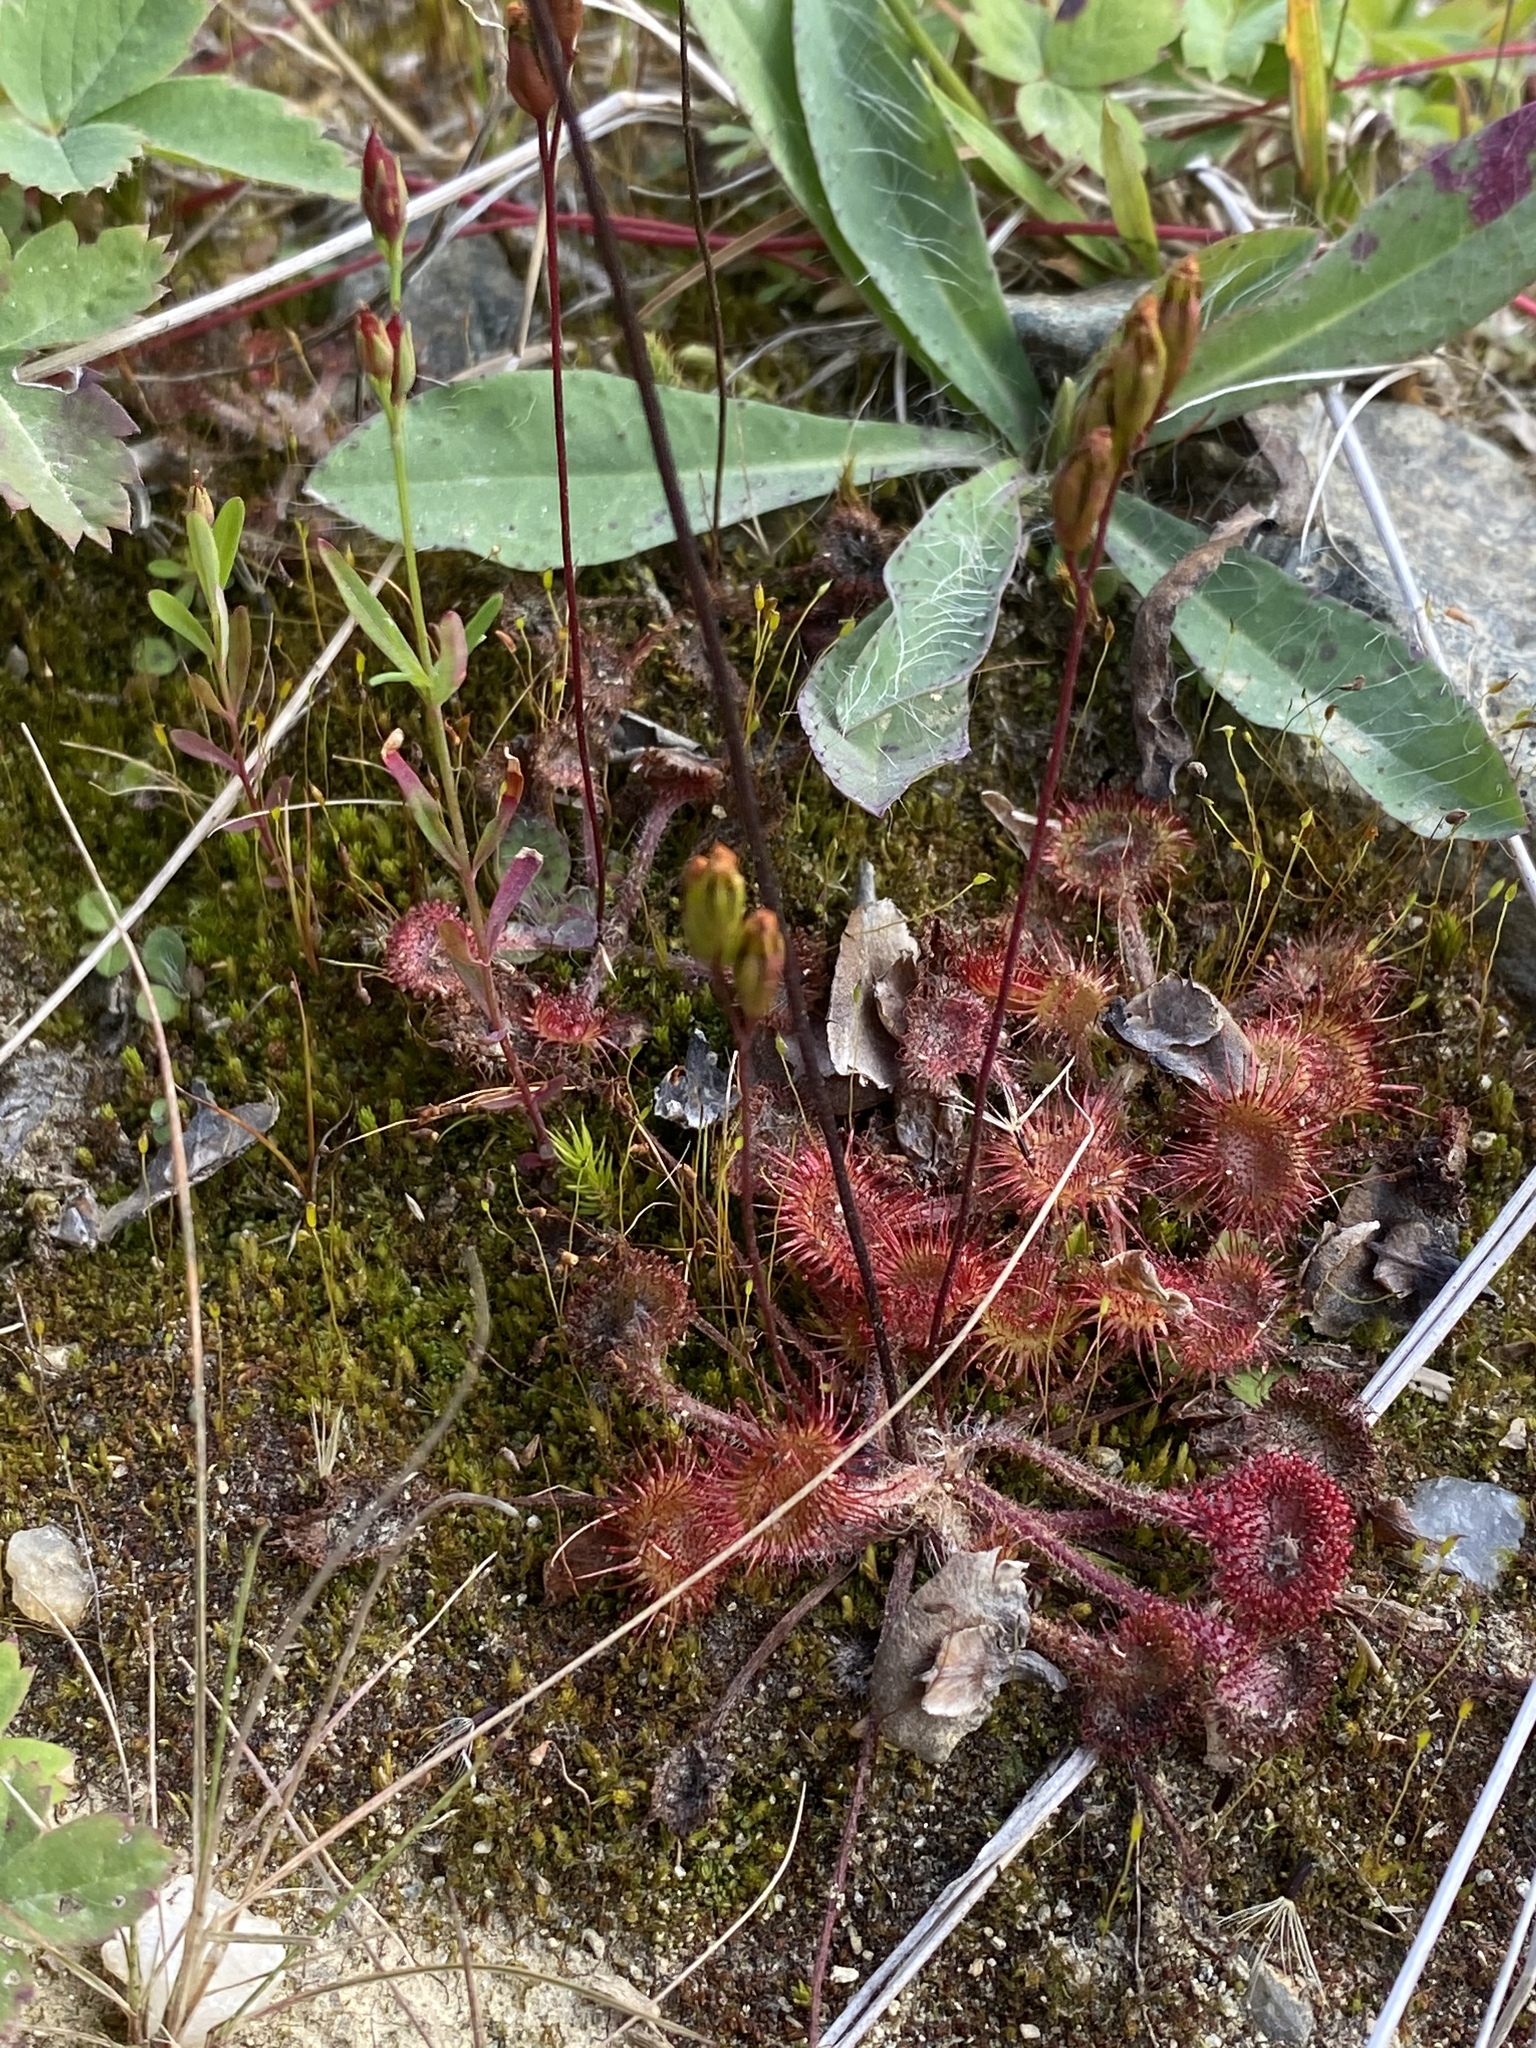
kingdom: Plantae
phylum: Tracheophyta
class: Magnoliopsida
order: Caryophyllales
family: Droseraceae
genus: Drosera
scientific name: Drosera rotundifolia
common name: Round-leaved sundew
